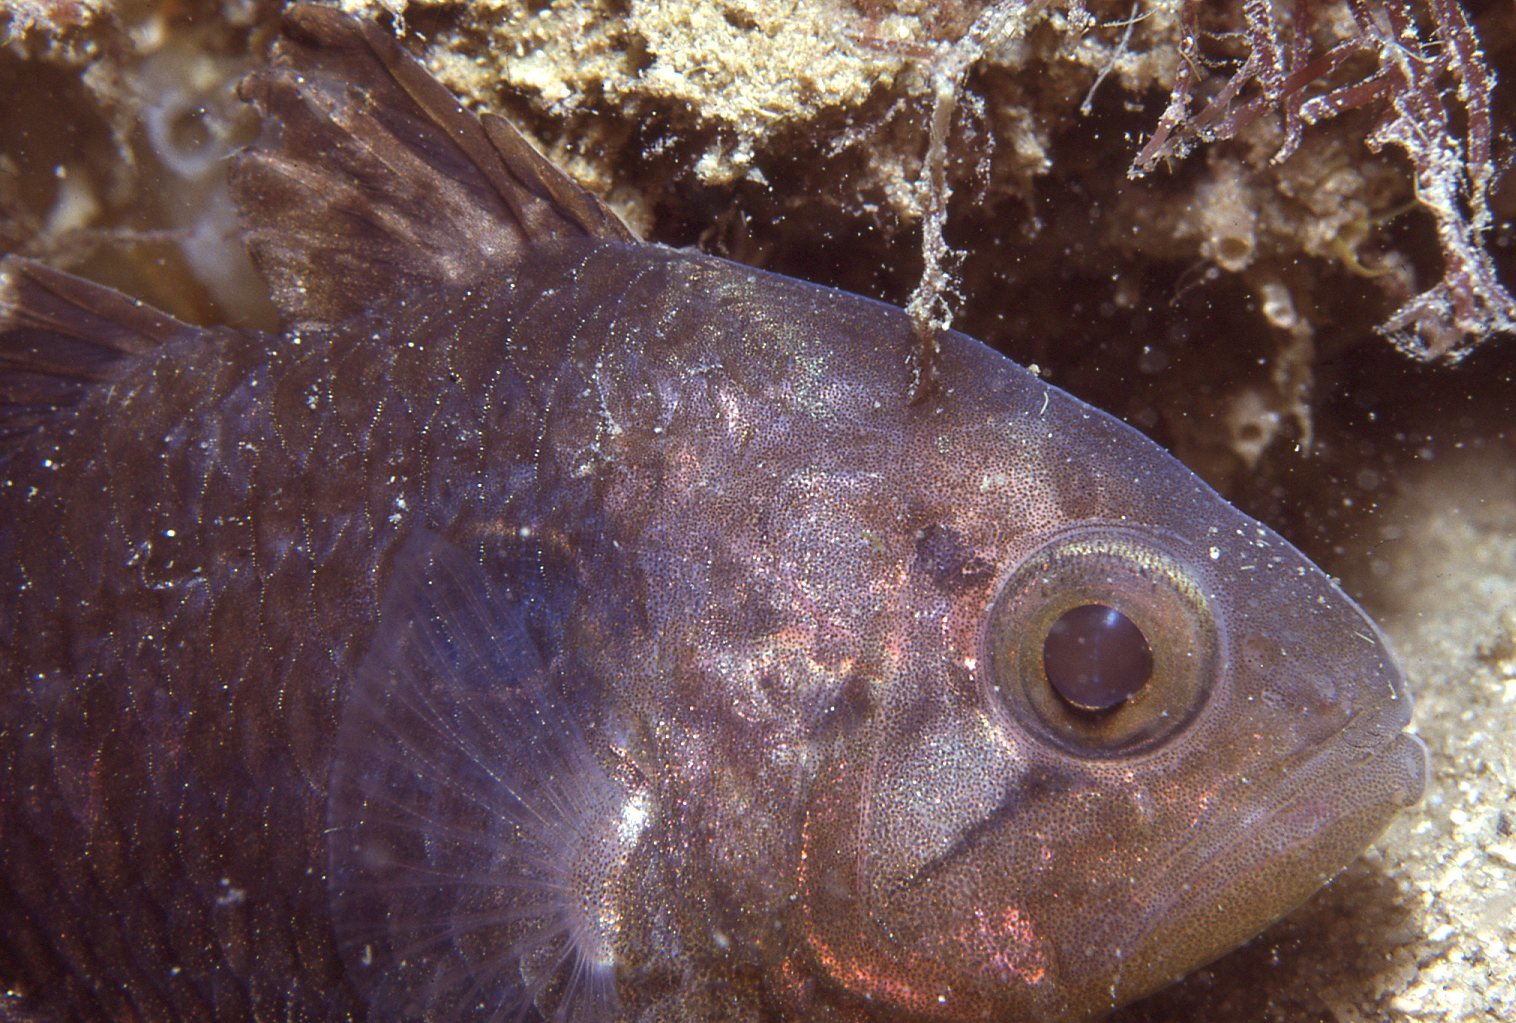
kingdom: Animalia
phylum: Chordata
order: Perciformes
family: Apogonidae
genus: Vincentia
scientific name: Vincentia novaehollandiae
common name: Eastern gobbleguts
